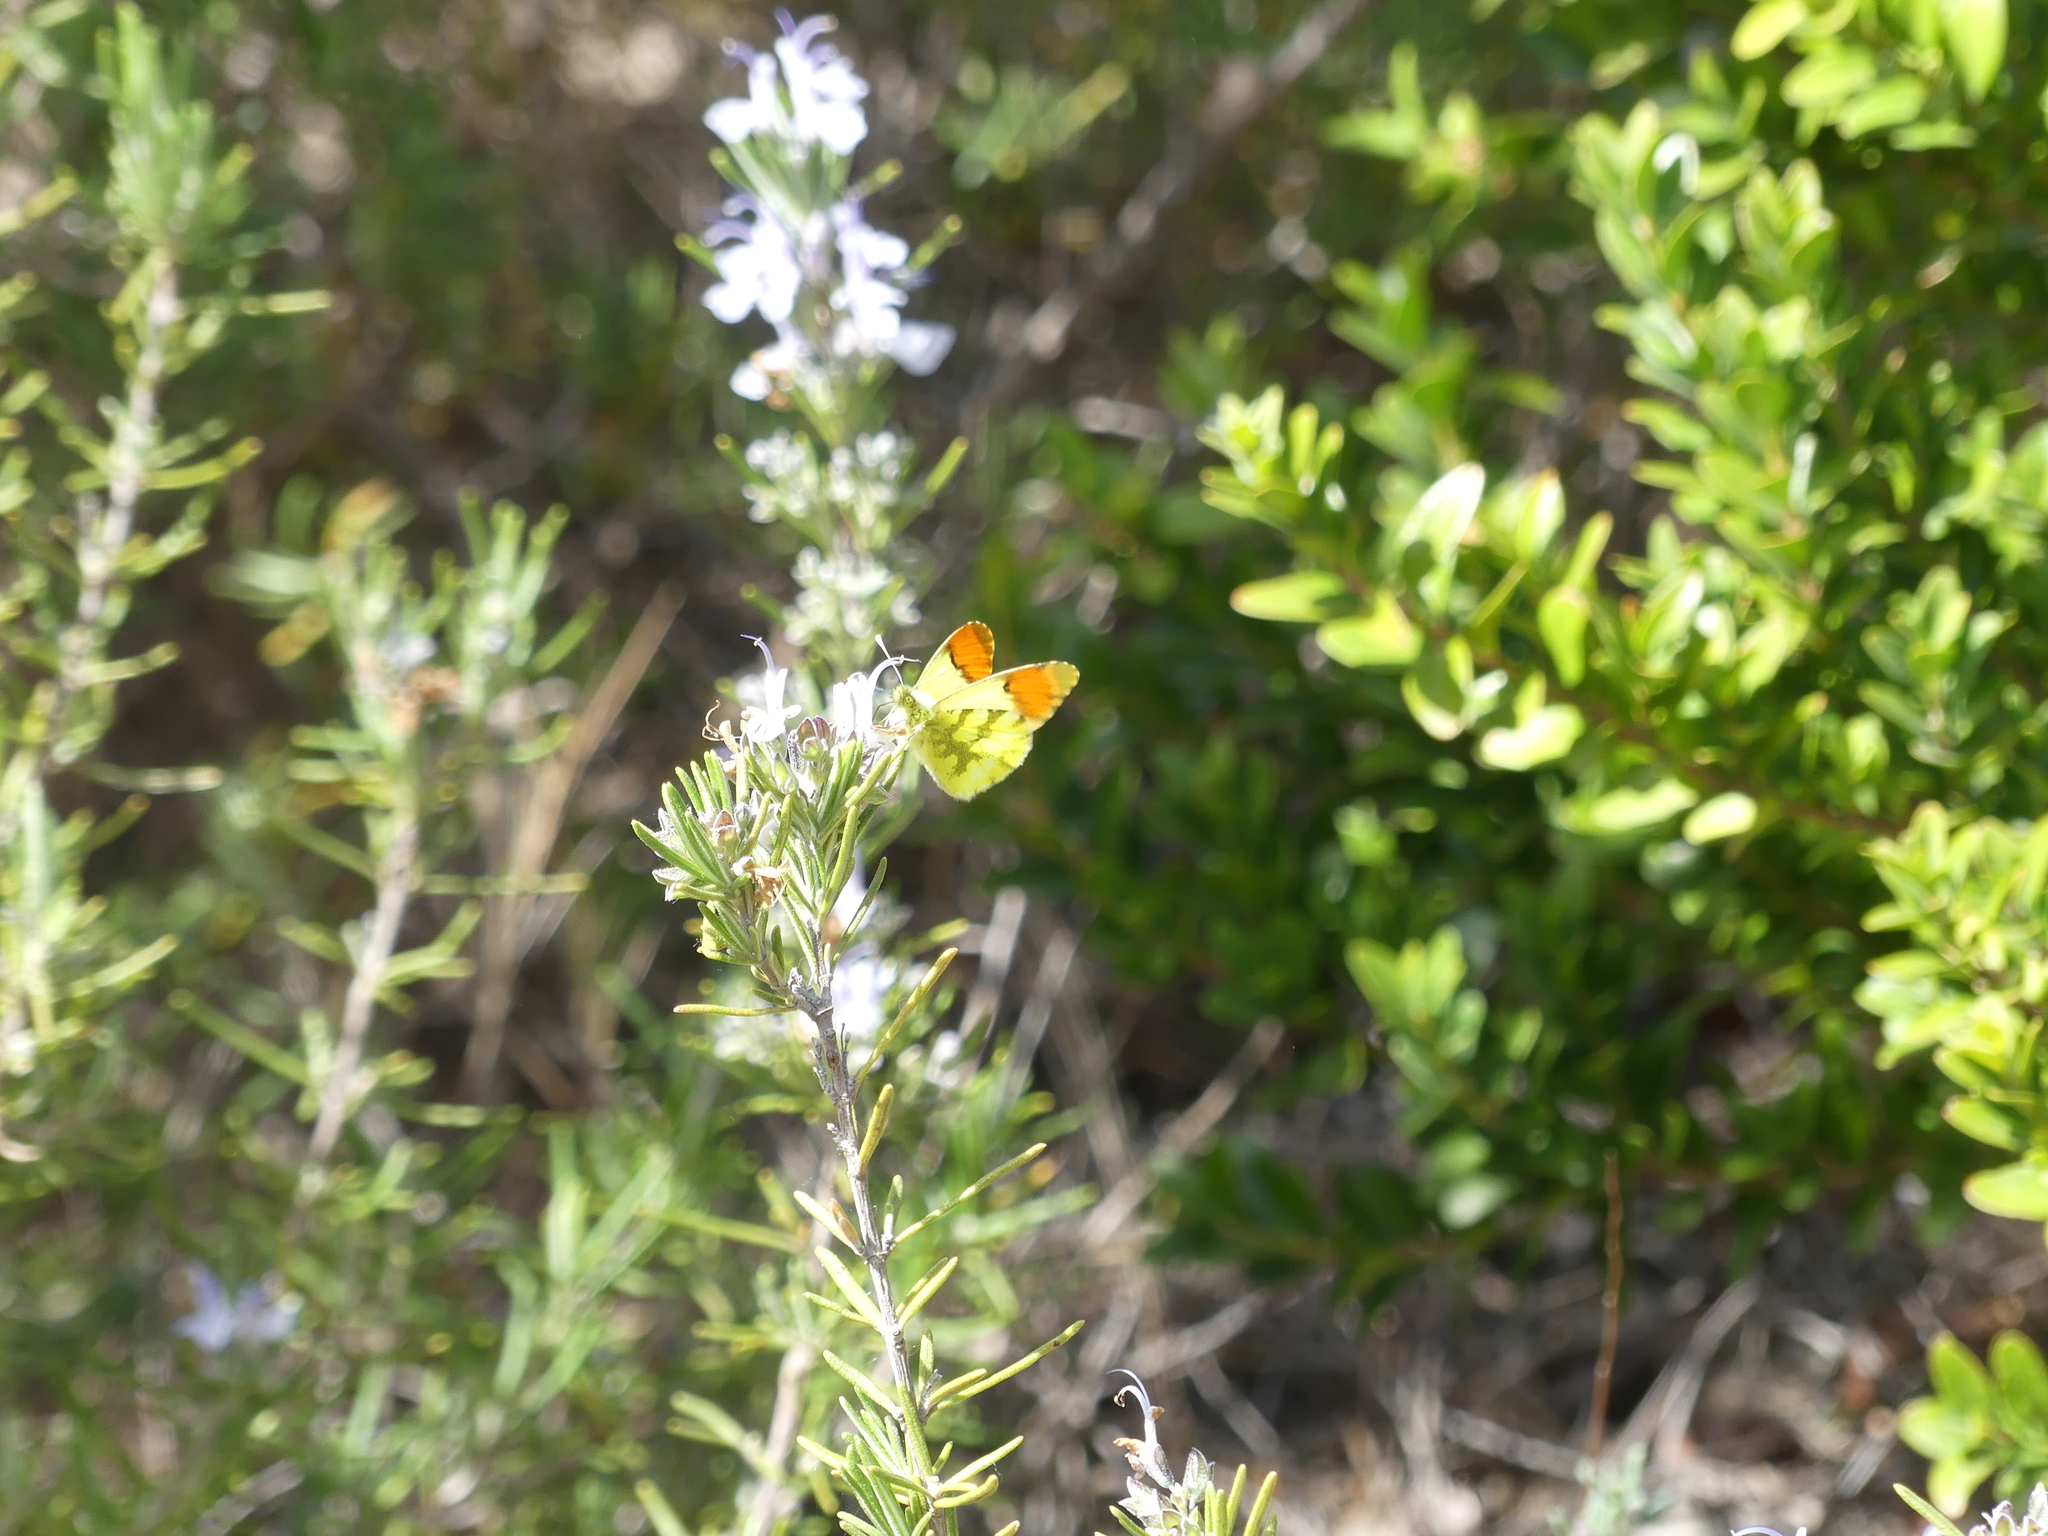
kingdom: Animalia
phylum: Arthropoda
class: Insecta
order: Lepidoptera
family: Pieridae
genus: Anthocharis
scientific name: Anthocharis euphenoides
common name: Provence orange-tip
